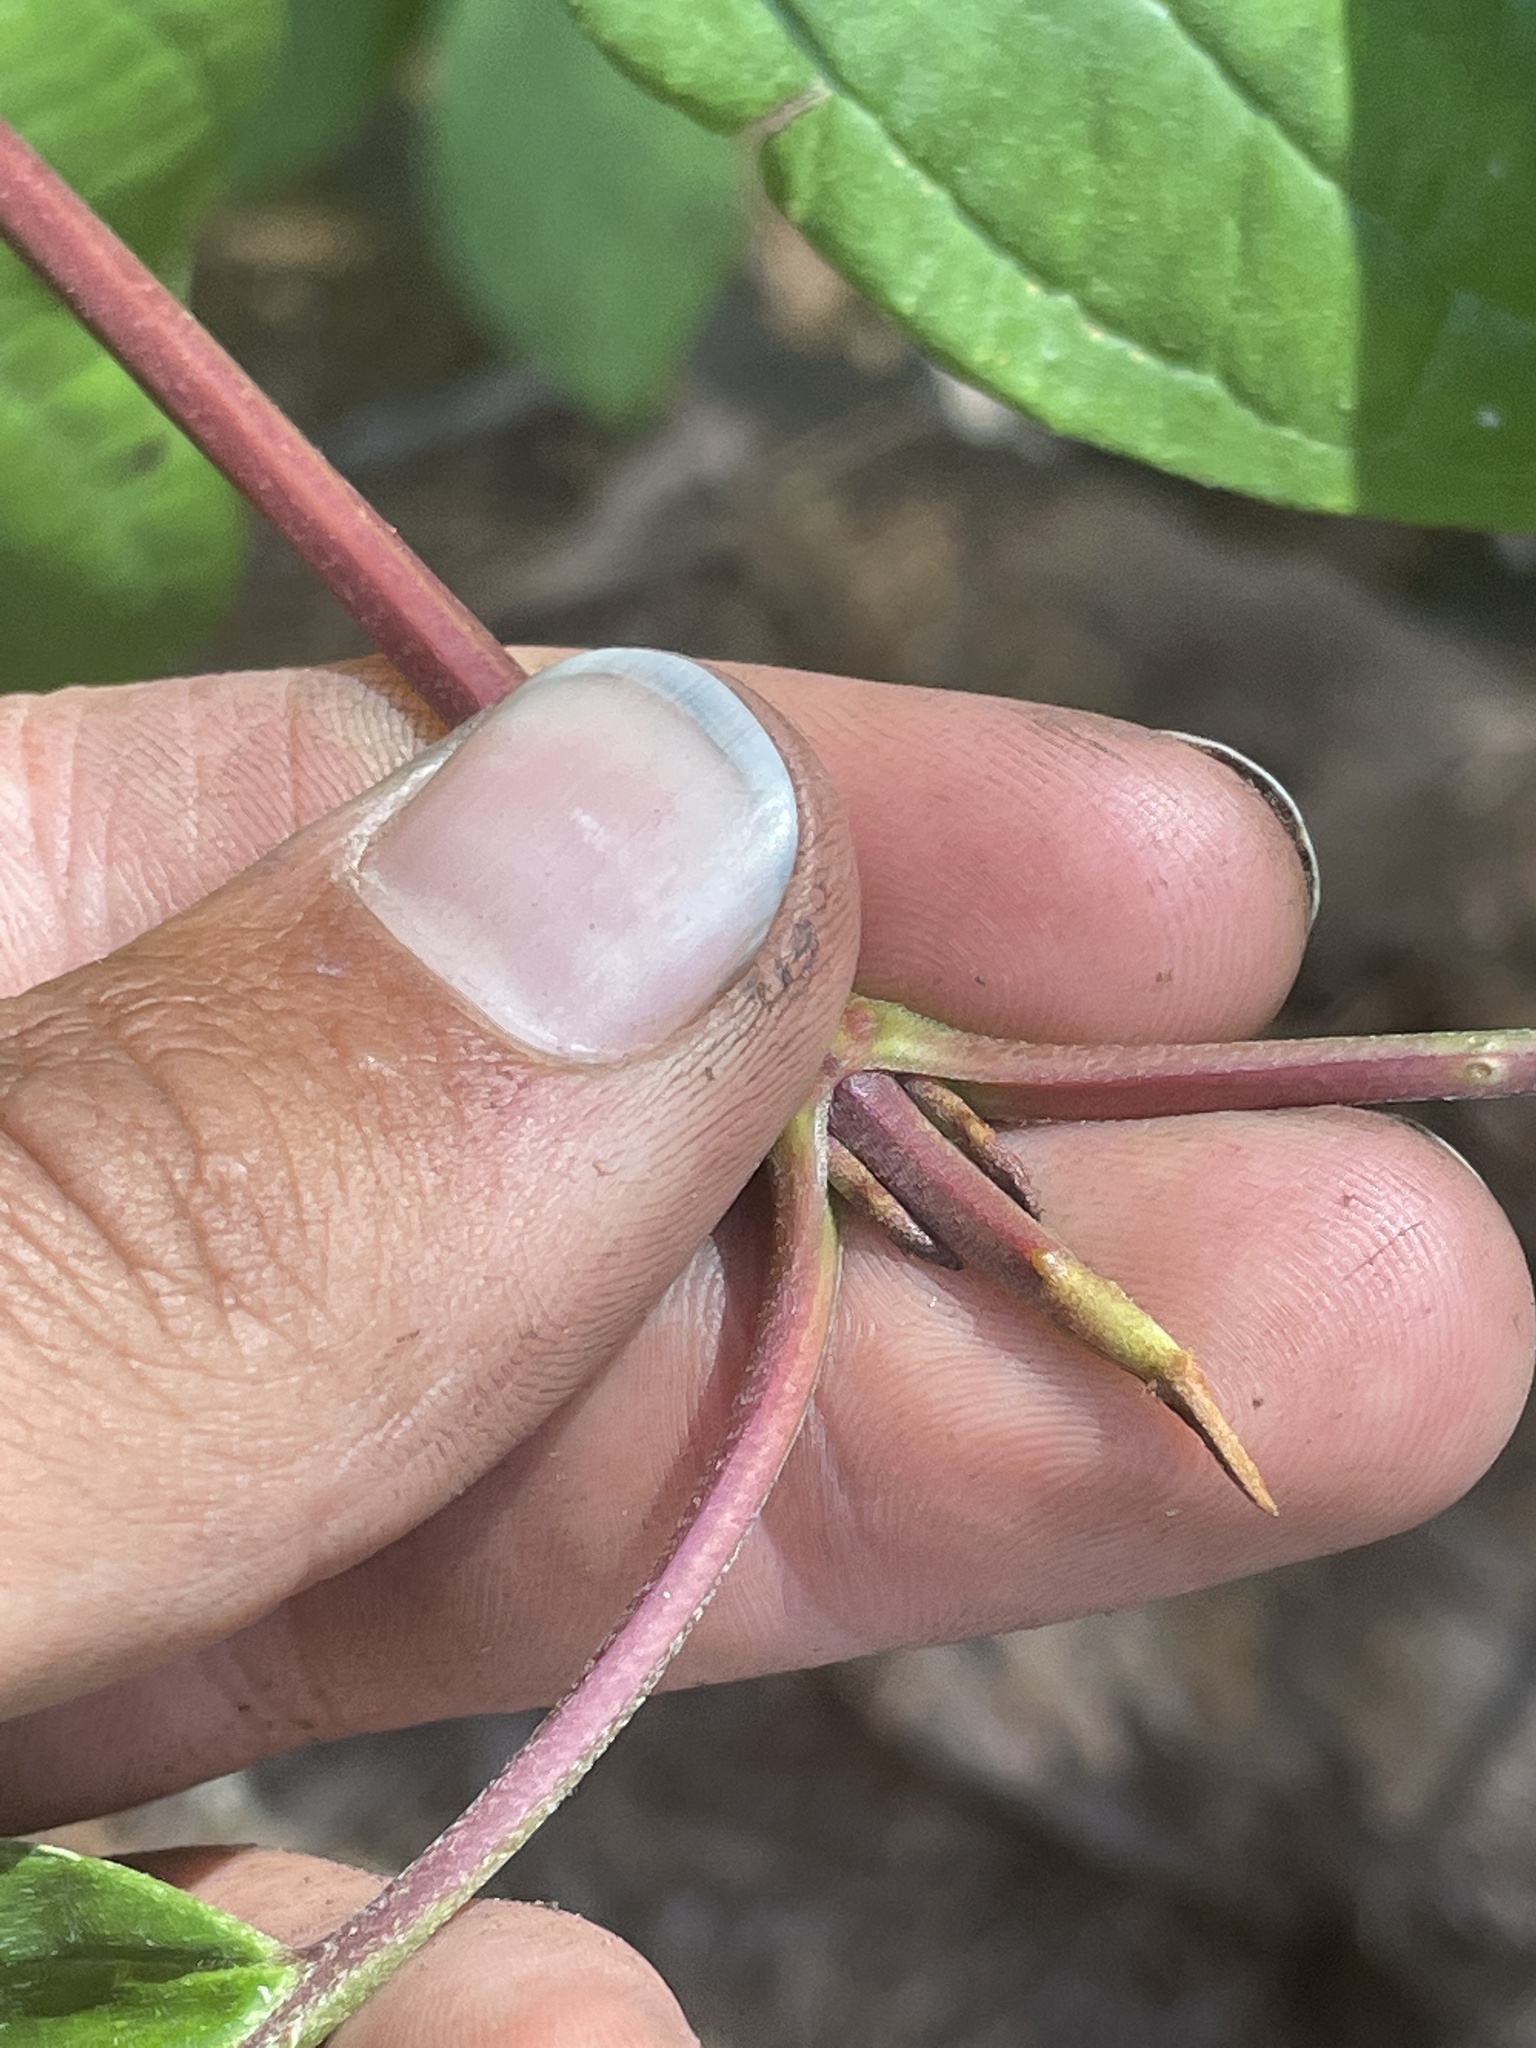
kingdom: Plantae
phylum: Tracheophyta
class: Magnoliopsida
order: Cornales
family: Cornaceae
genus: Cornus
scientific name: Cornus nuttallii
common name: Pacific dogwood
